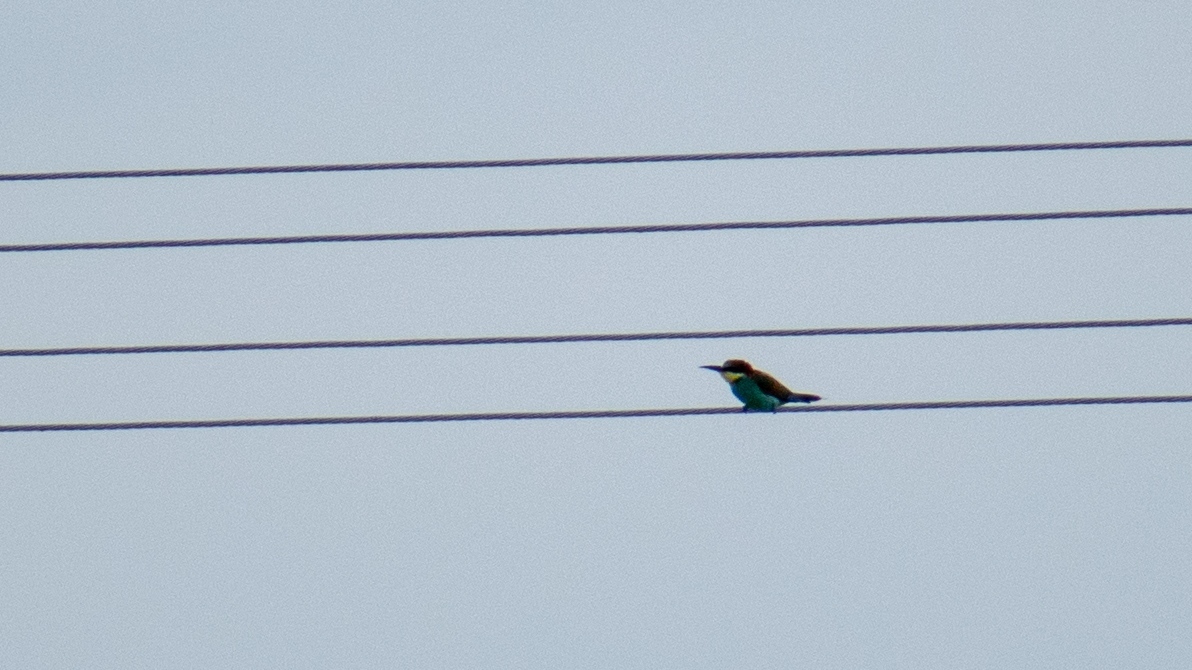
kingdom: Animalia
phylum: Chordata
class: Aves
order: Coraciiformes
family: Meropidae
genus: Merops
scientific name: Merops apiaster
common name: European bee-eater
